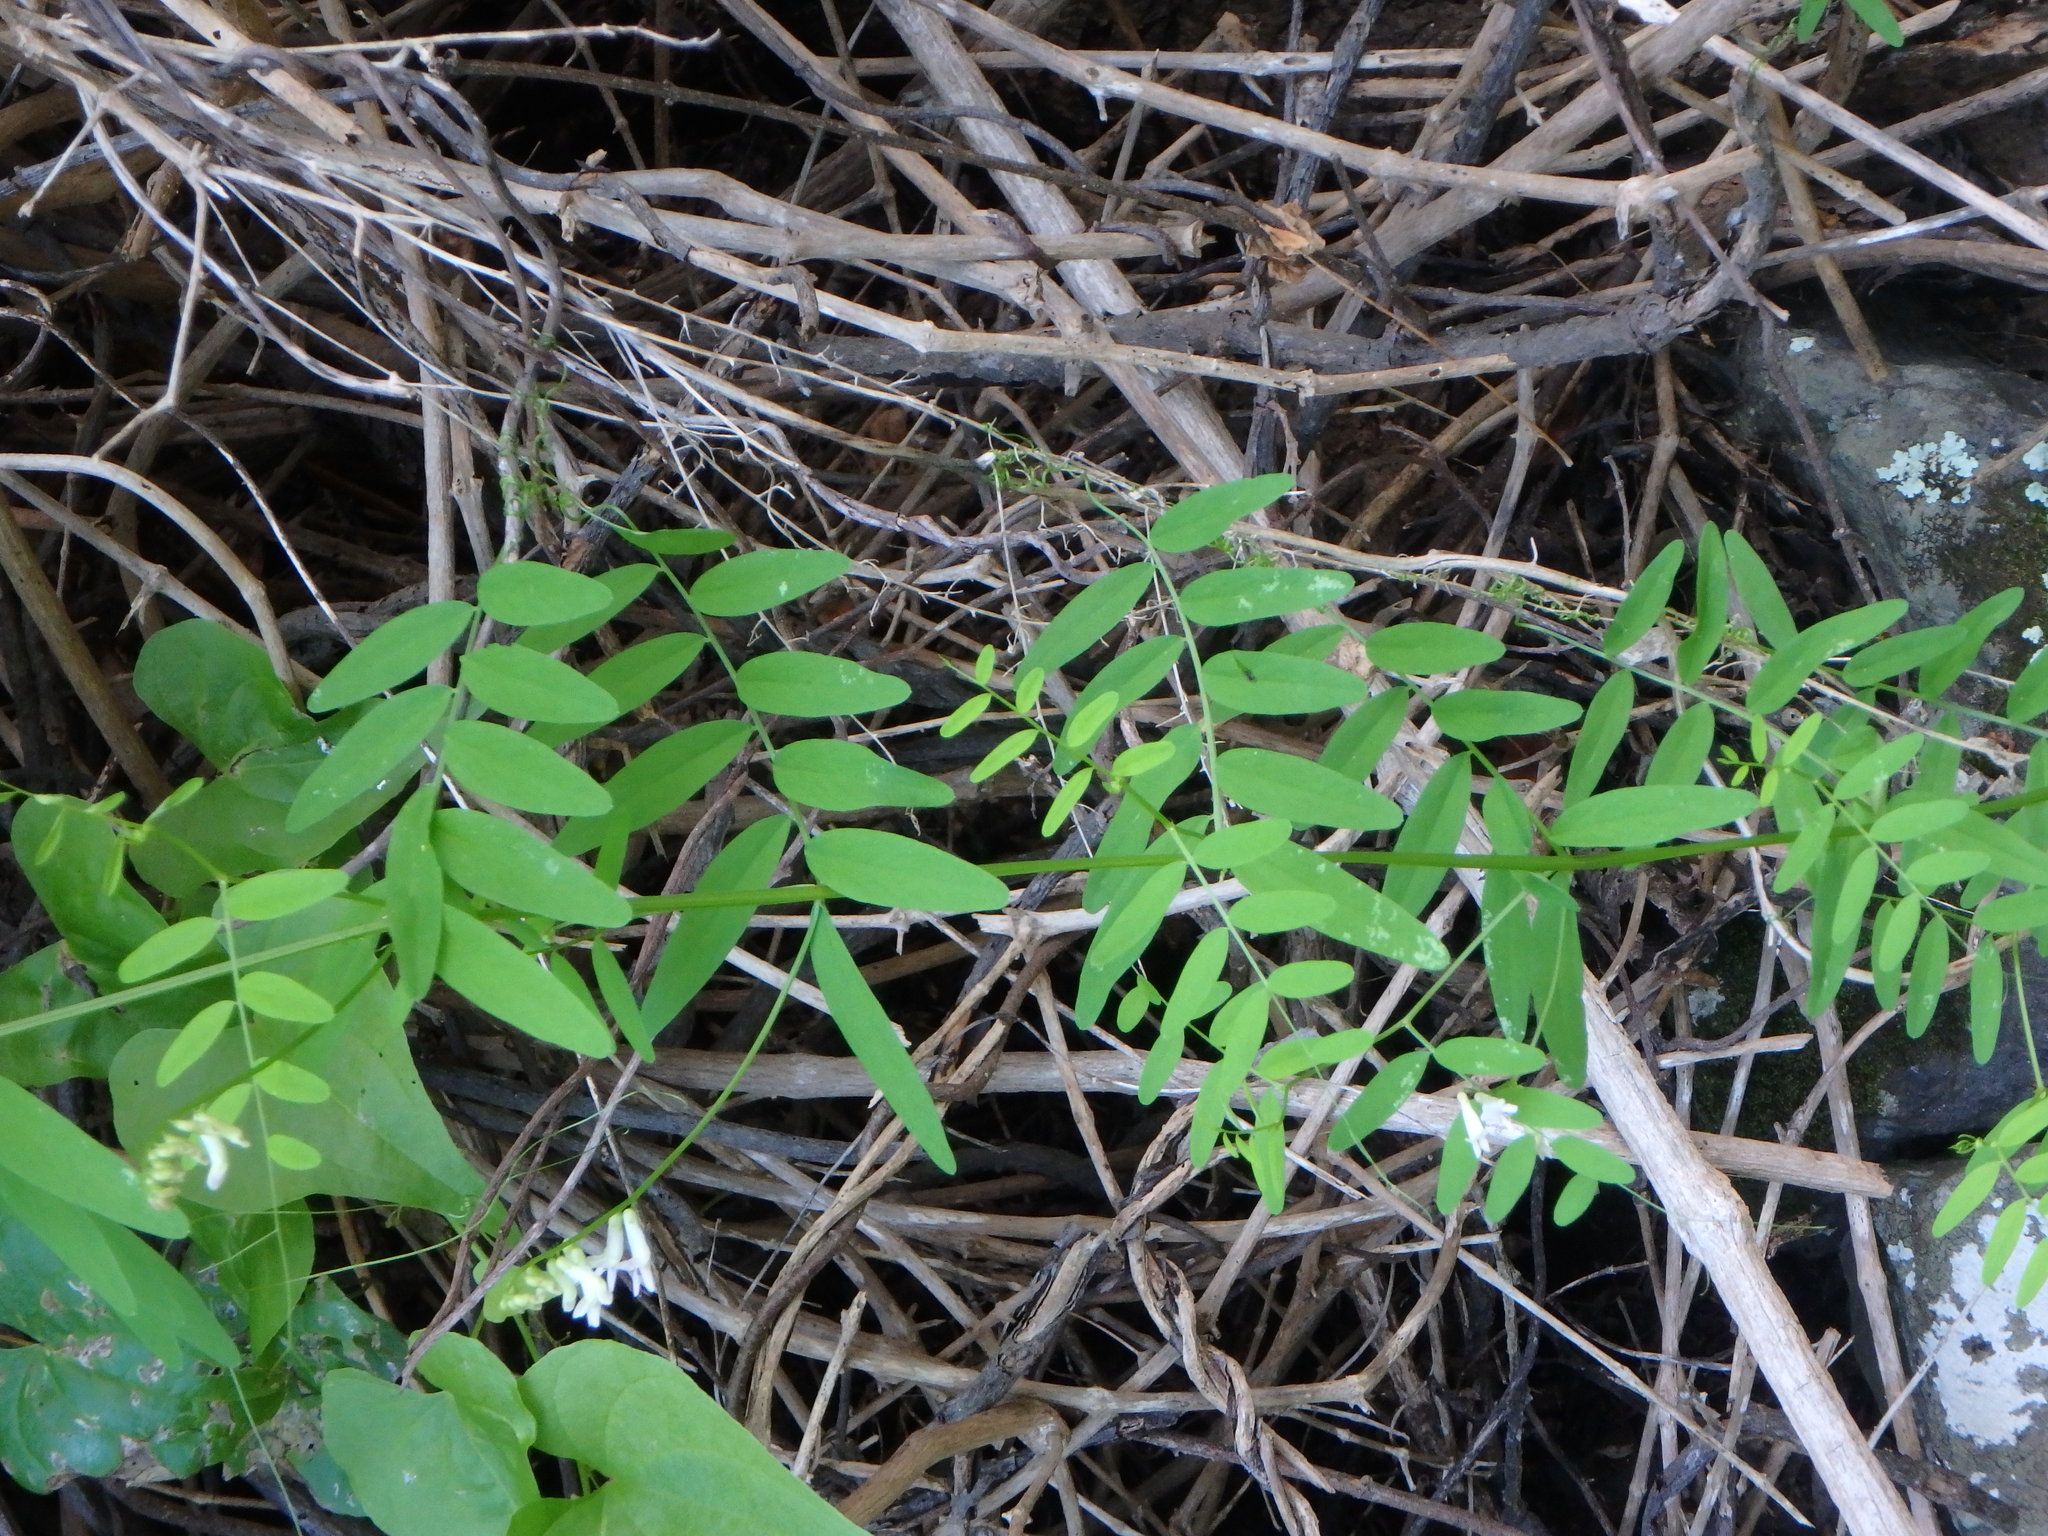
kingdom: Plantae
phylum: Tracheophyta
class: Magnoliopsida
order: Fabales
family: Fabaceae
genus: Vicia
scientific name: Vicia aphylla
